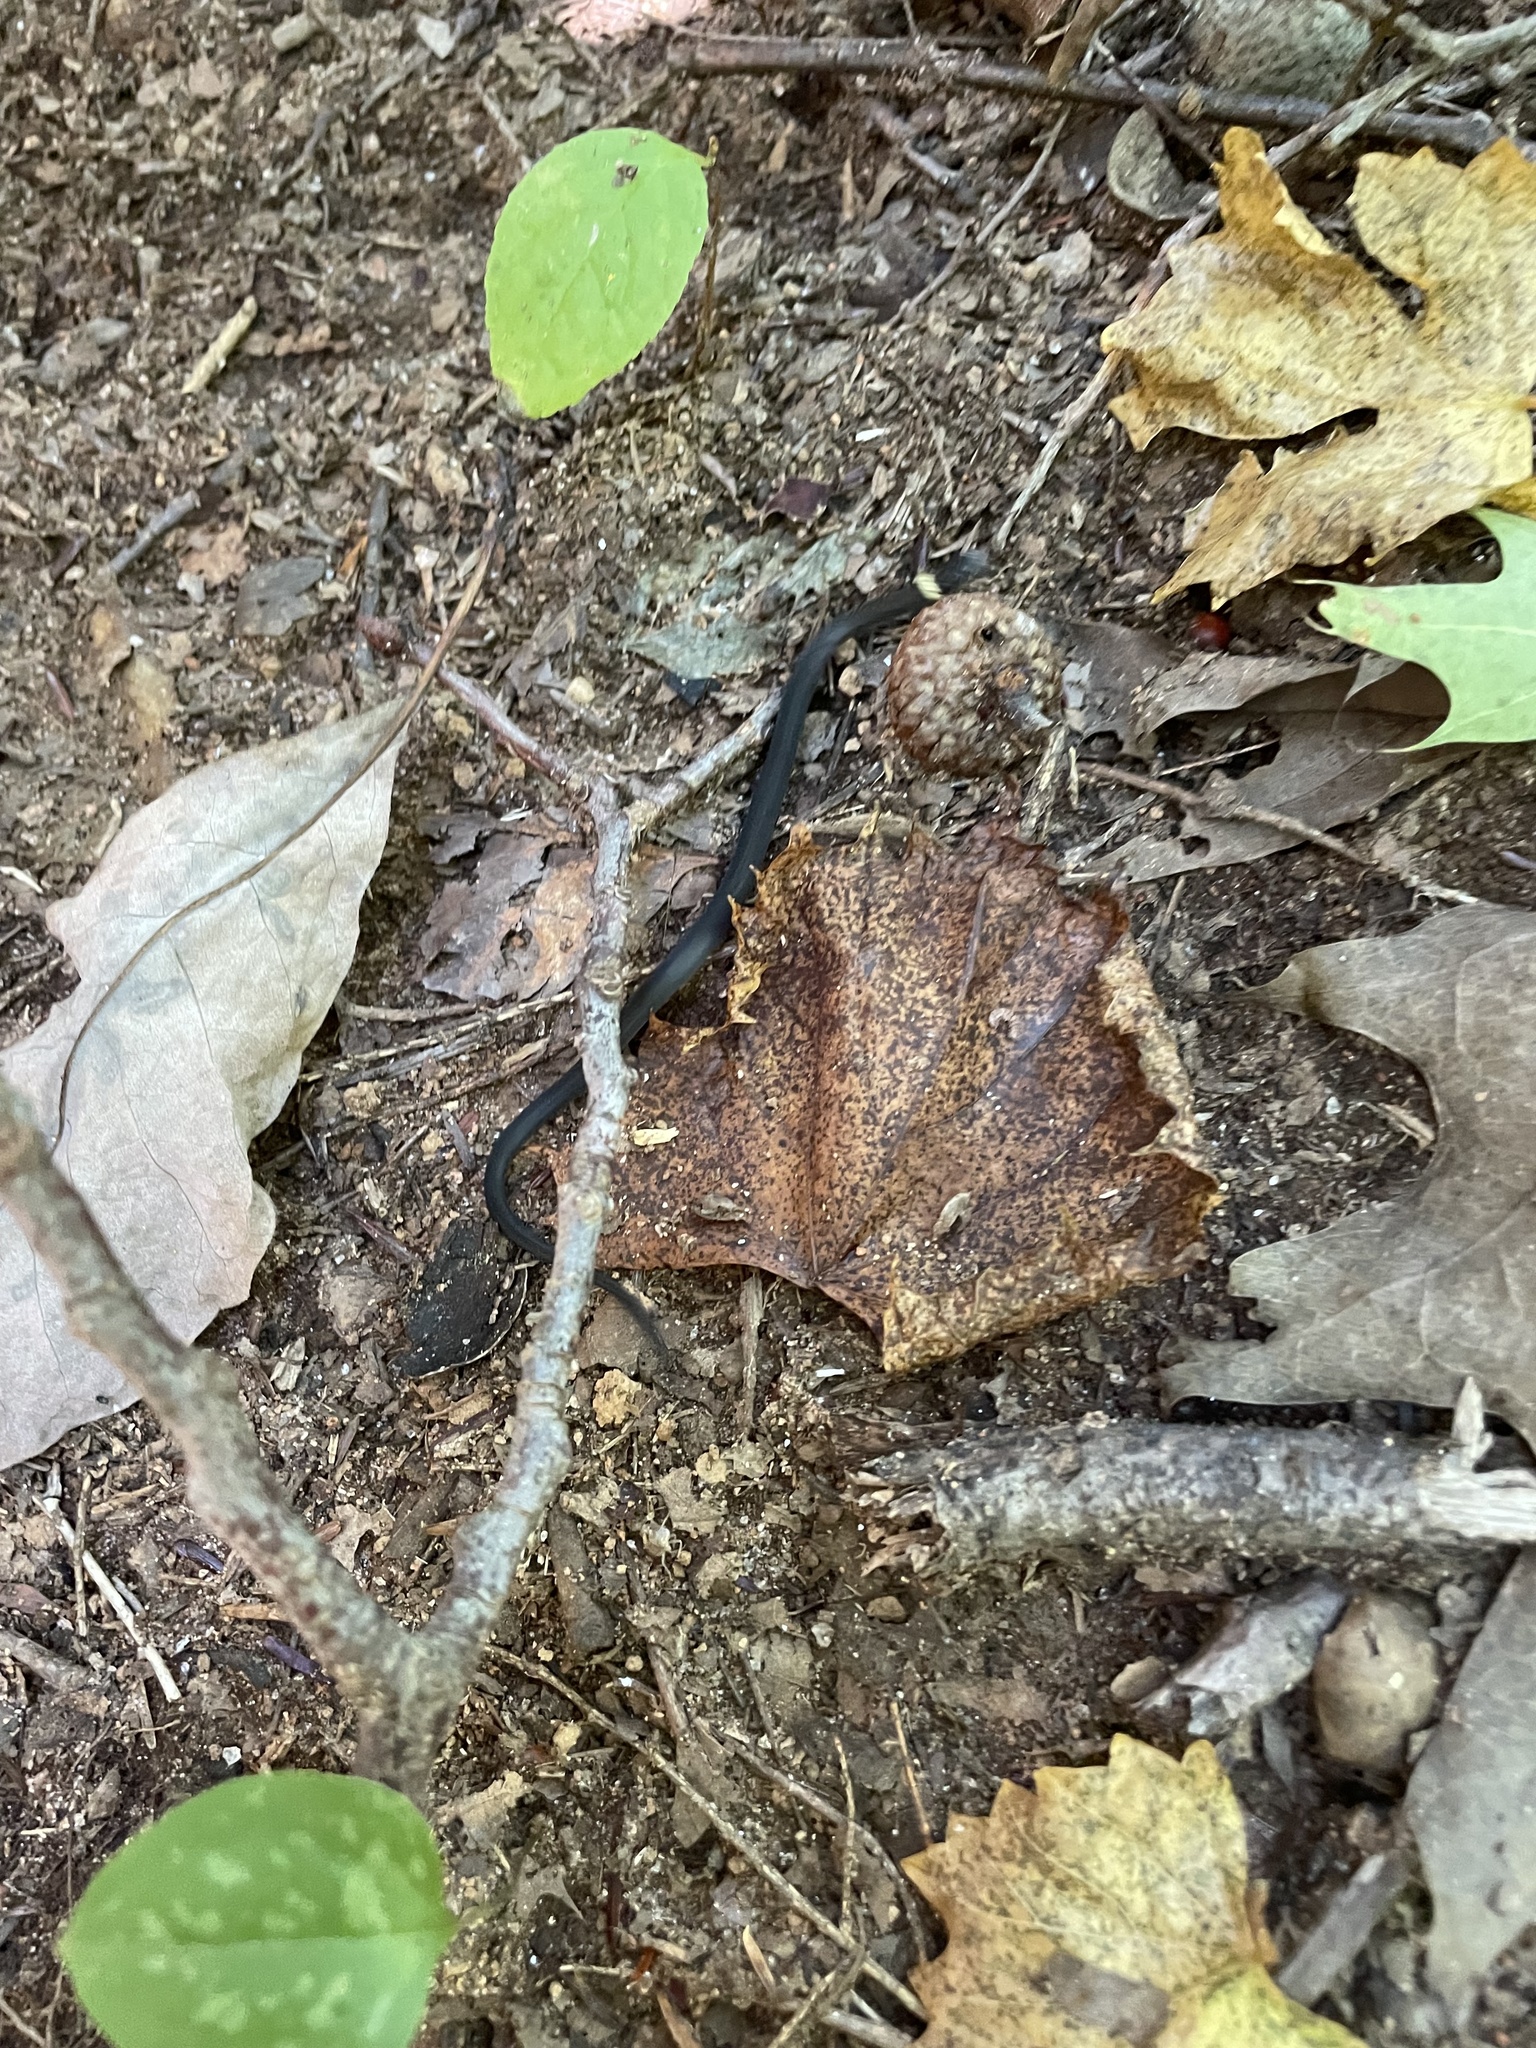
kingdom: Animalia
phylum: Chordata
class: Squamata
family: Colubridae
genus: Diadophis
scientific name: Diadophis punctatus
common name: Ringneck snake
